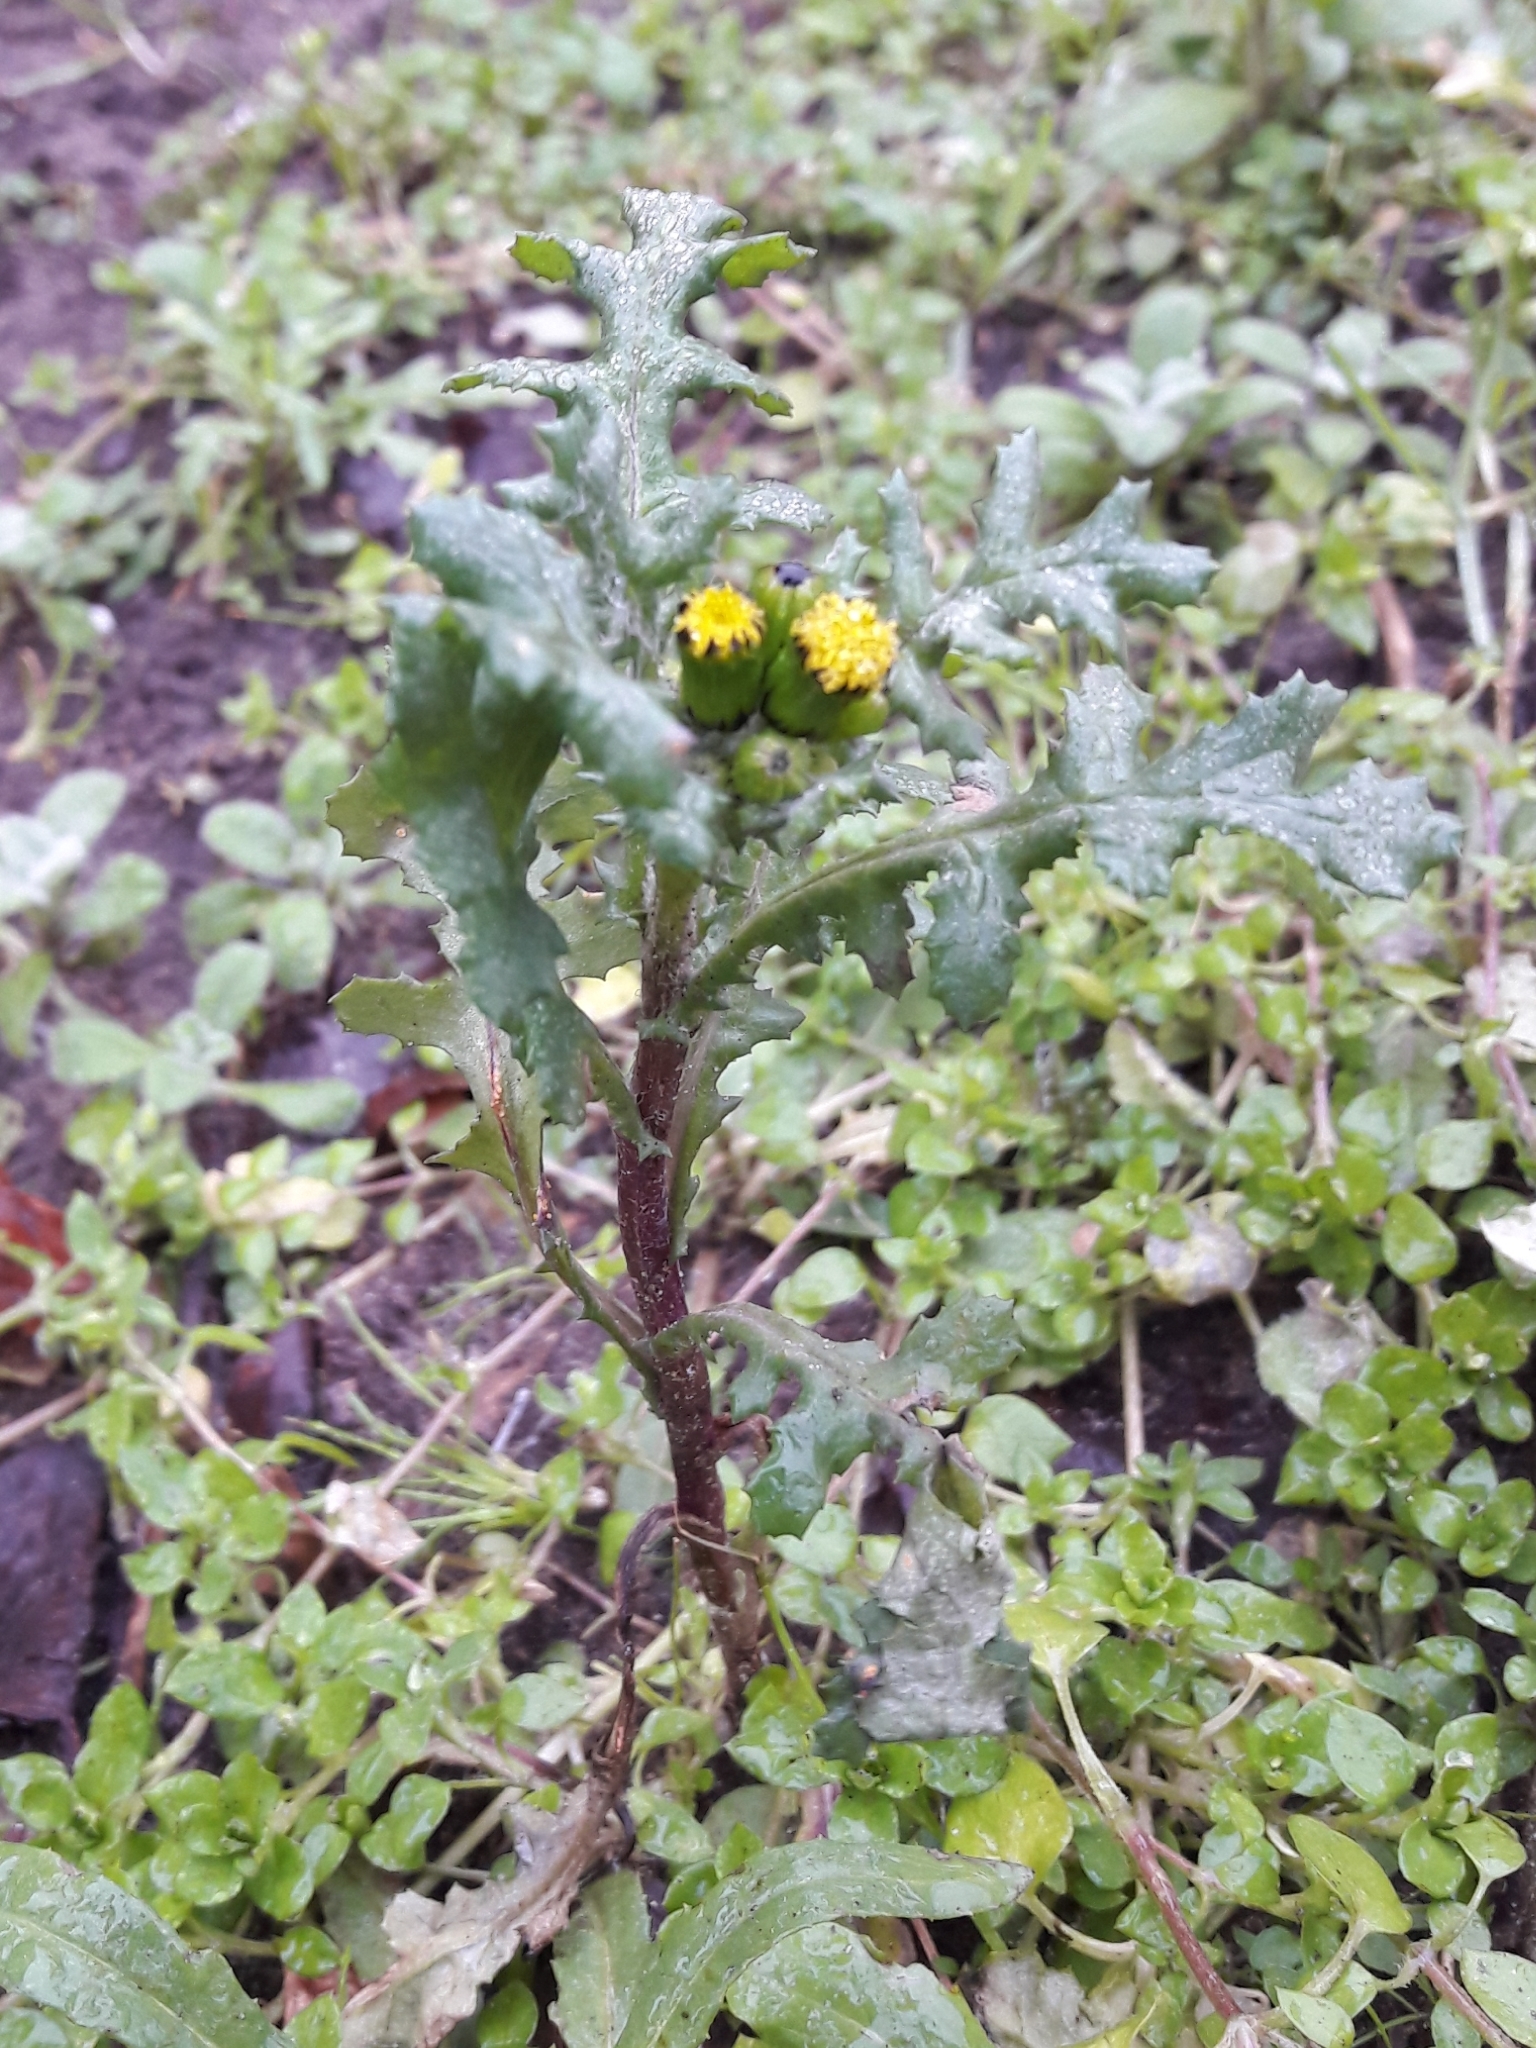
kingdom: Plantae
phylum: Tracheophyta
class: Magnoliopsida
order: Asterales
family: Asteraceae
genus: Senecio
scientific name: Senecio vulgaris
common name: Old-man-in-the-spring
